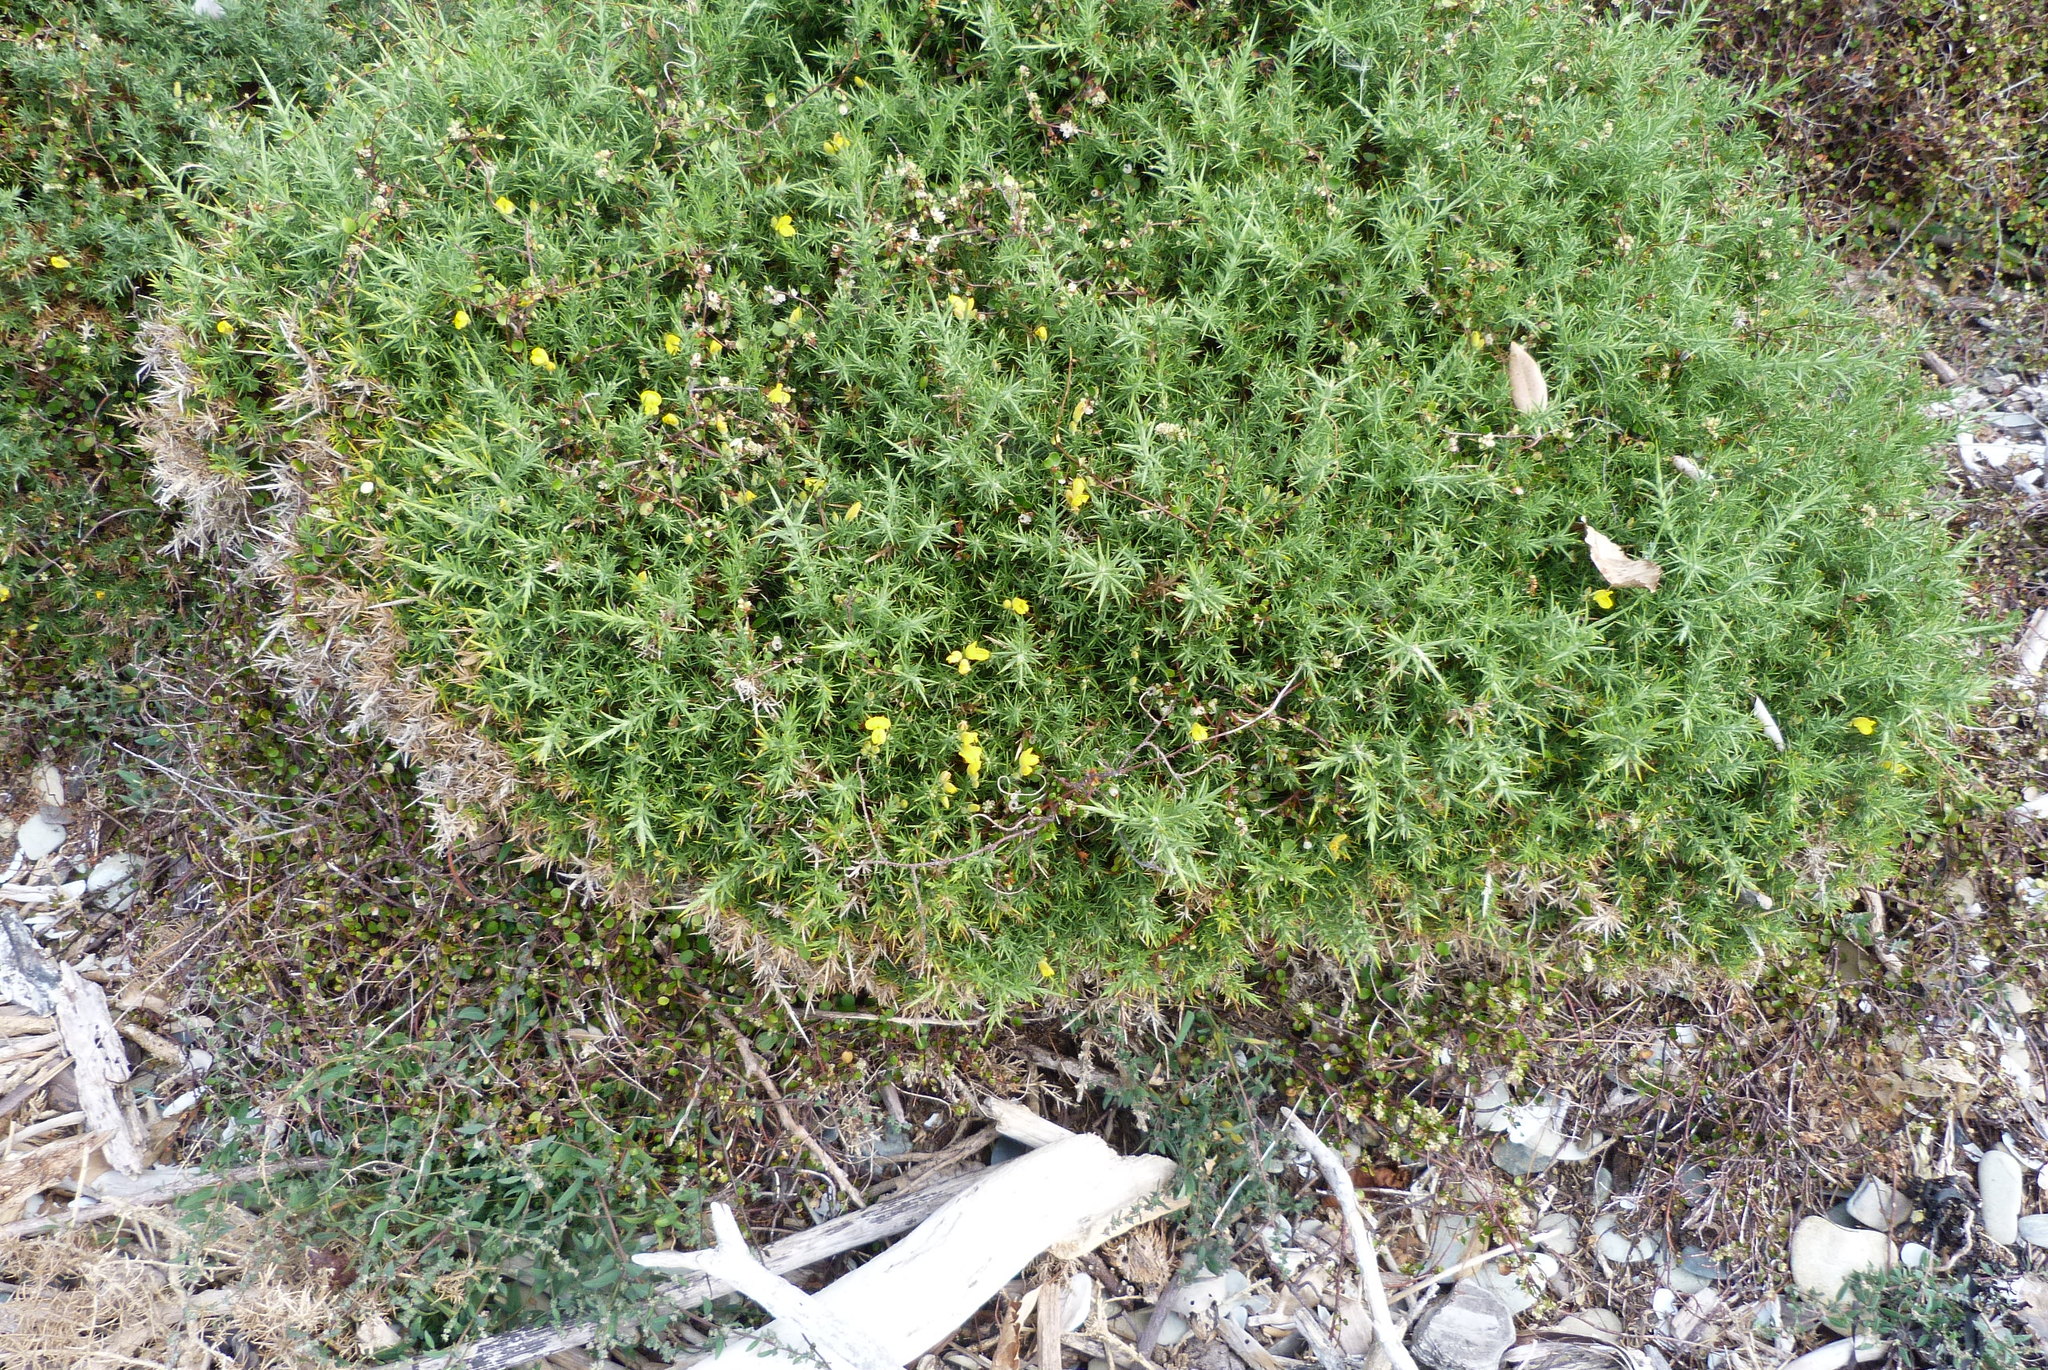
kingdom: Plantae
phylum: Tracheophyta
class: Magnoliopsida
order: Caryophyllales
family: Polygonaceae
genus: Muehlenbeckia
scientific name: Muehlenbeckia complexa
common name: Wireplant
